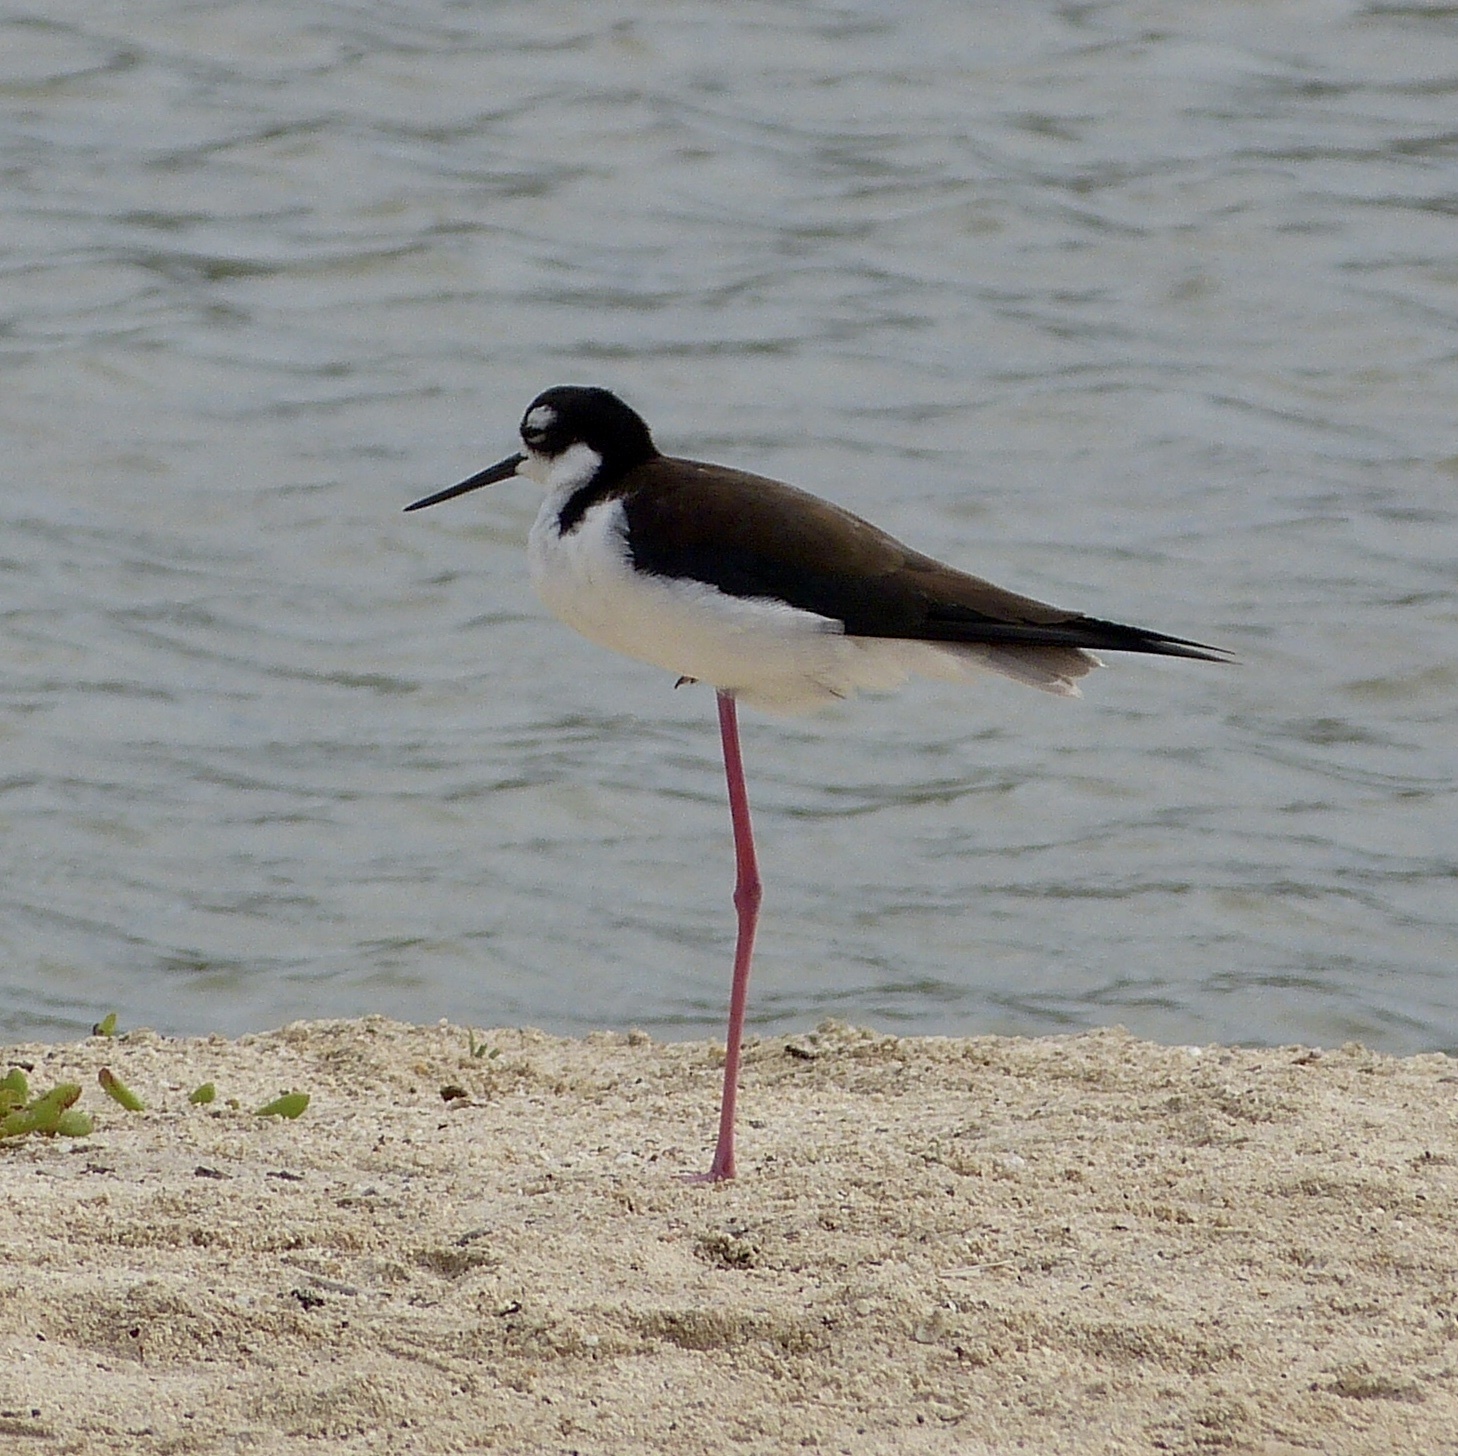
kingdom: Animalia
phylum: Chordata
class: Aves
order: Charadriiformes
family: Recurvirostridae
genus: Himantopus
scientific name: Himantopus mexicanus
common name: Black-necked stilt
